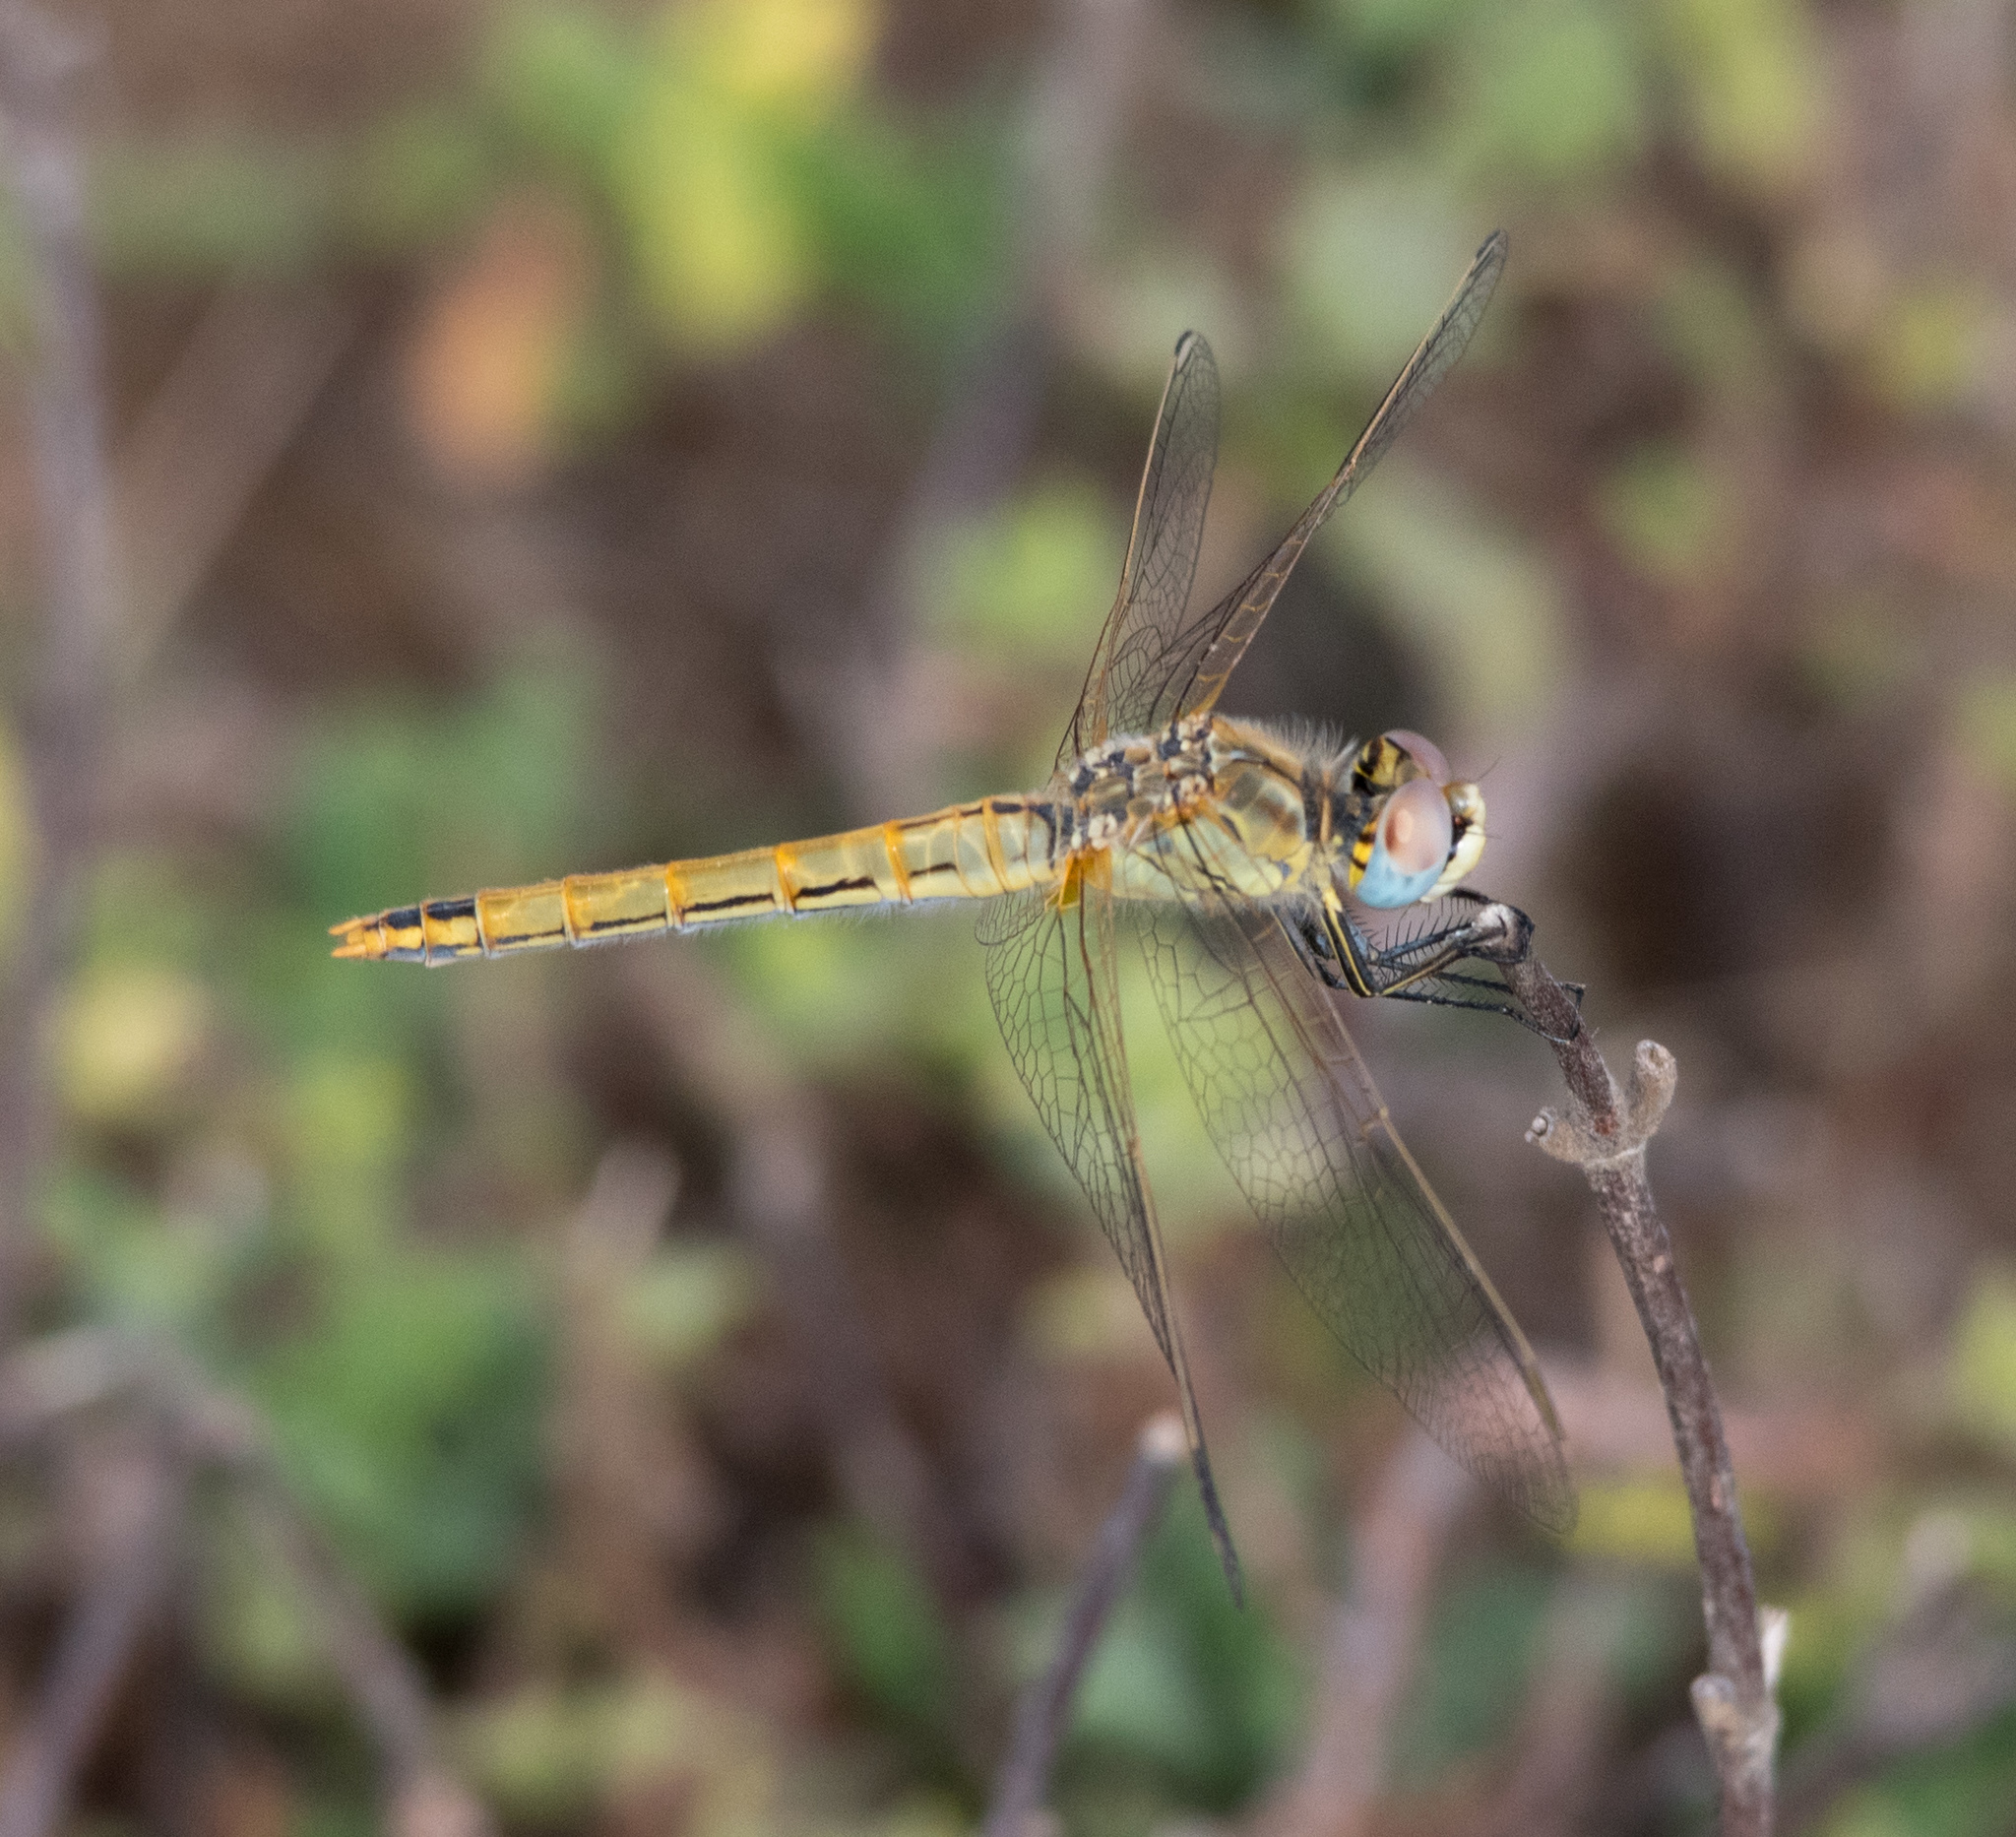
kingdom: Animalia
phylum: Arthropoda
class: Insecta
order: Odonata
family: Libellulidae
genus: Sympetrum
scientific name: Sympetrum fonscolombii
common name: Red-veined darter
